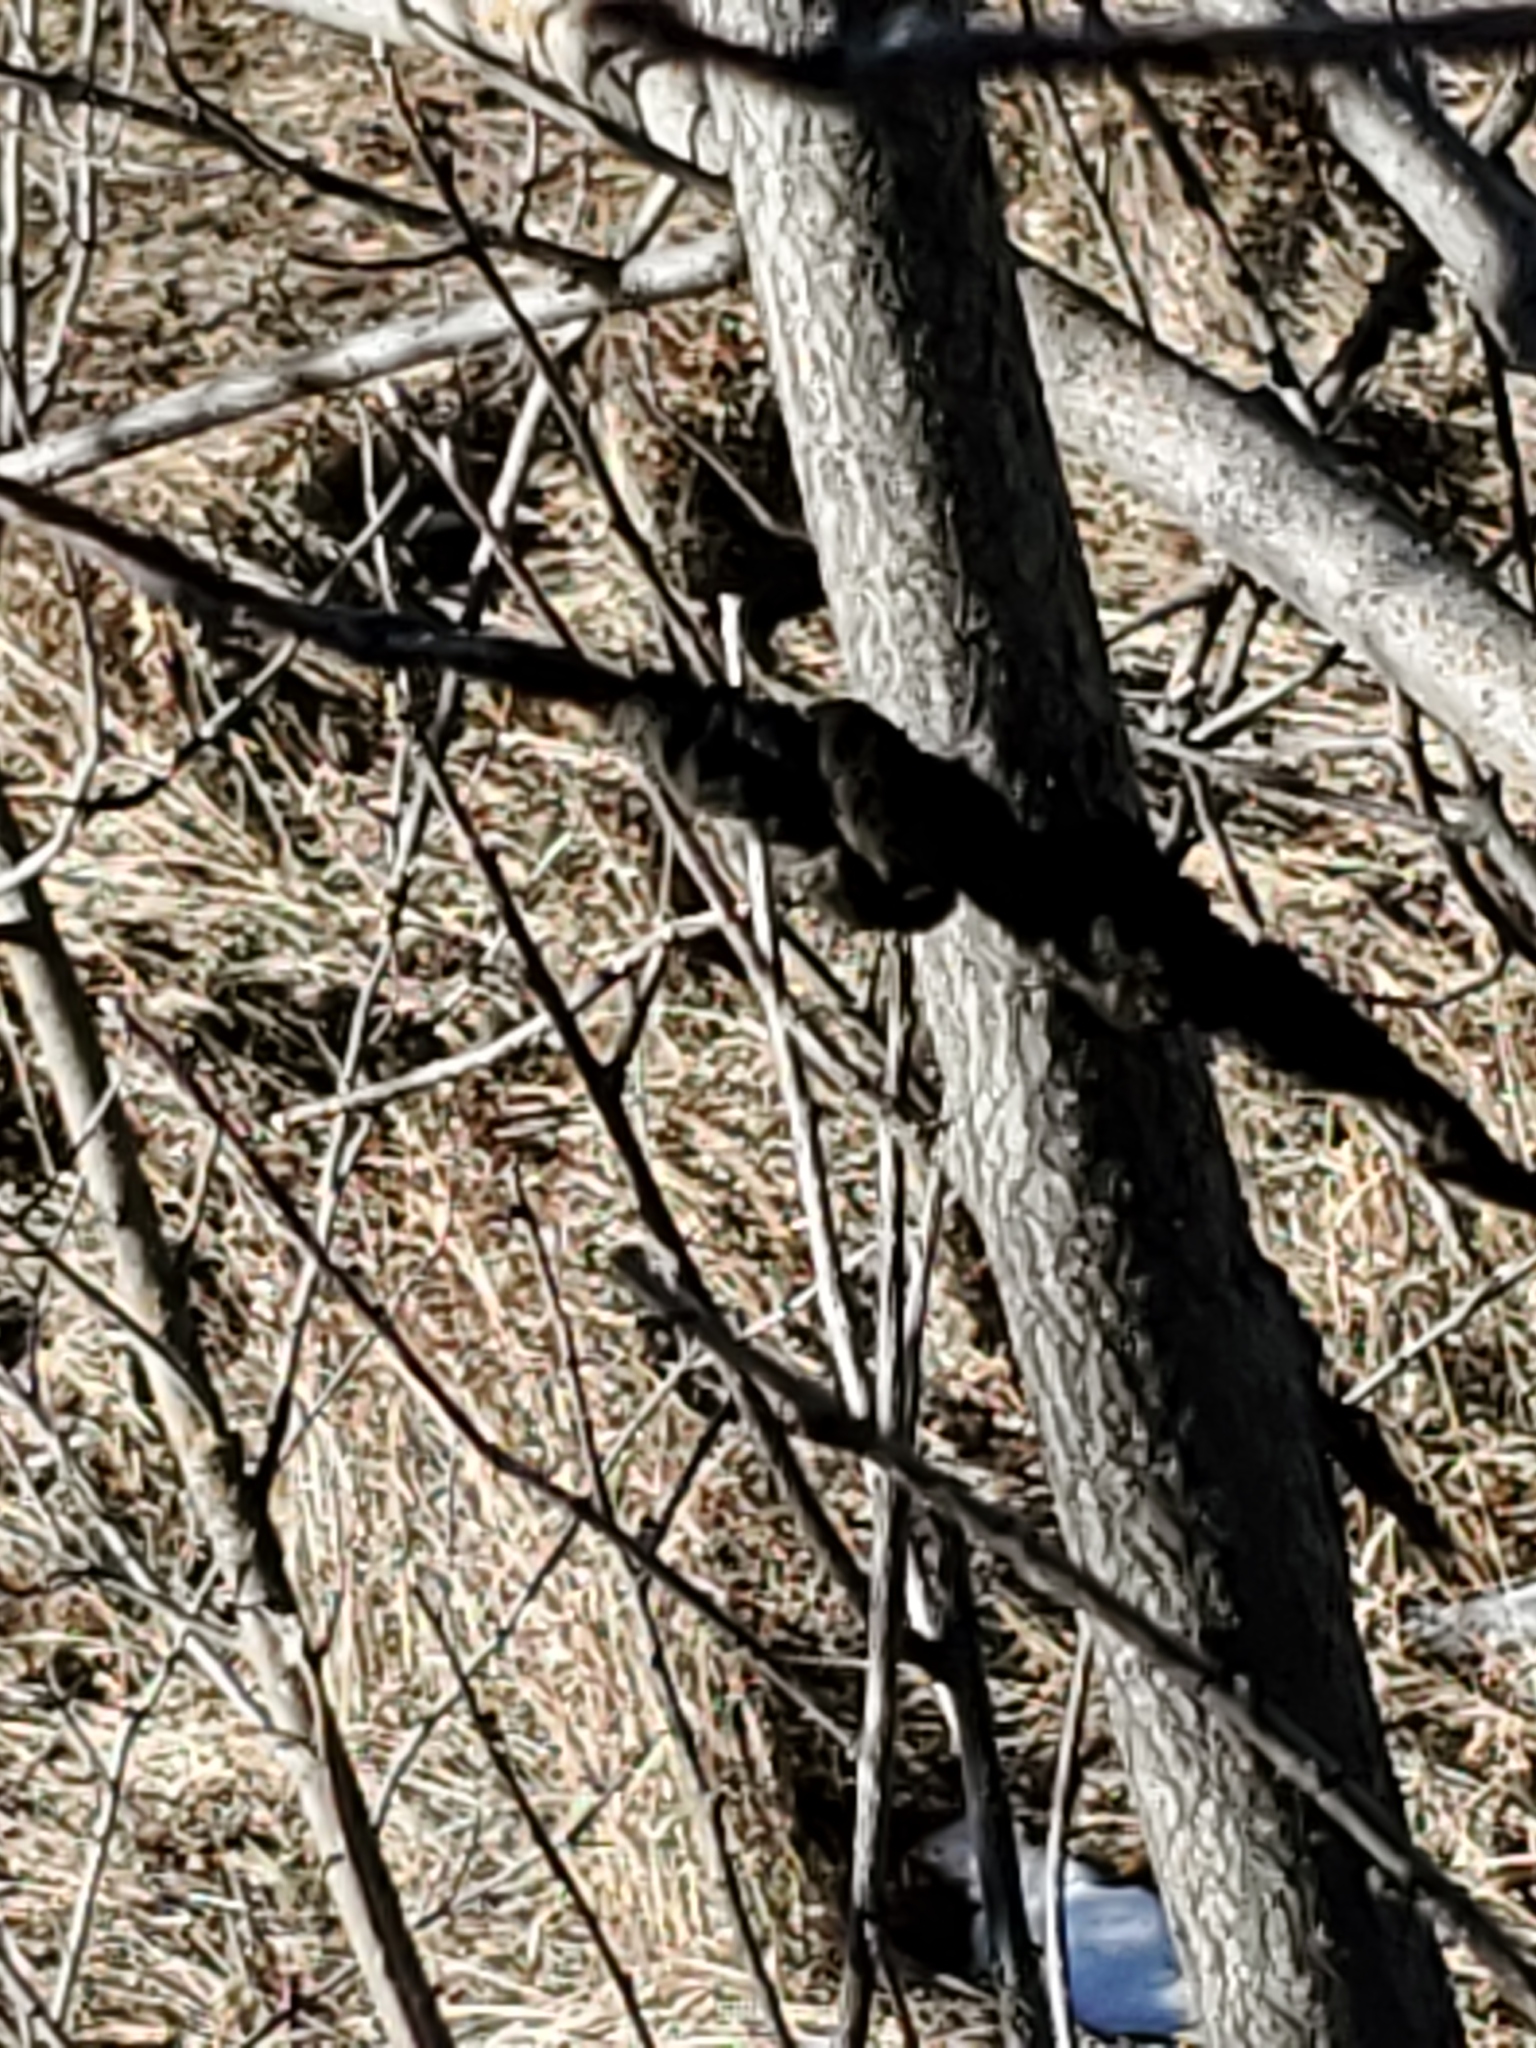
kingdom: Fungi
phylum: Ascomycota
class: Dothideomycetes
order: Venturiales
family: Venturiaceae
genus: Apiosporina
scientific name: Apiosporina morbosa
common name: Black knot
